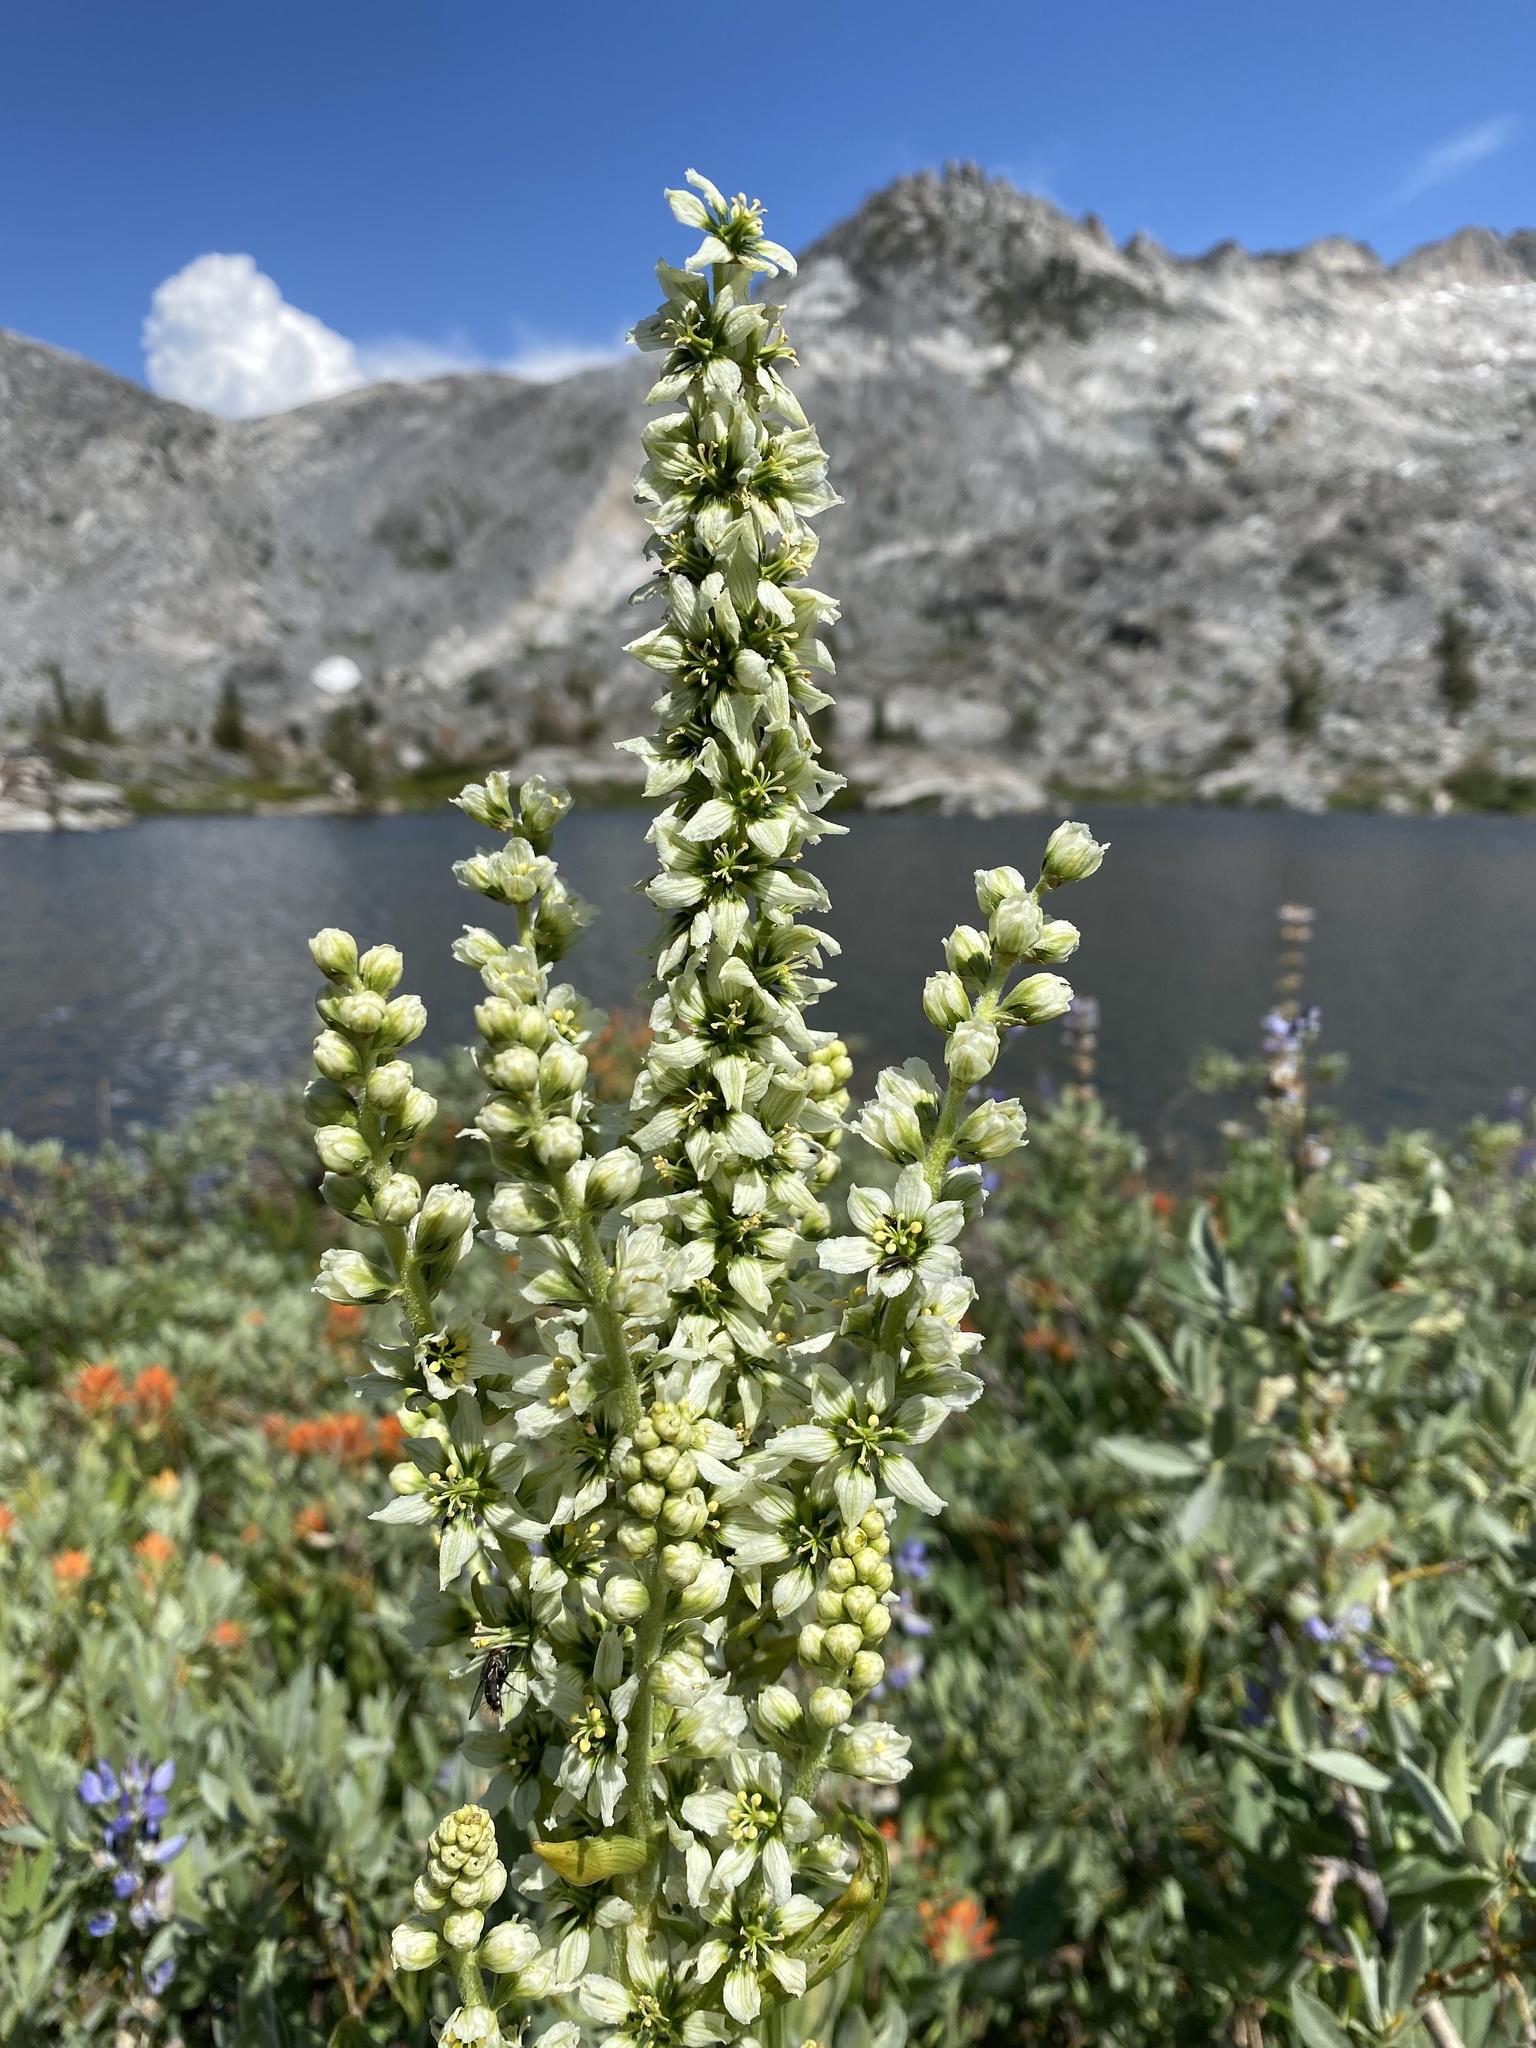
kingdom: Plantae
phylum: Tracheophyta
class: Liliopsida
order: Liliales
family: Melanthiaceae
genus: Veratrum
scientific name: Veratrum californicum
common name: California veratrum
